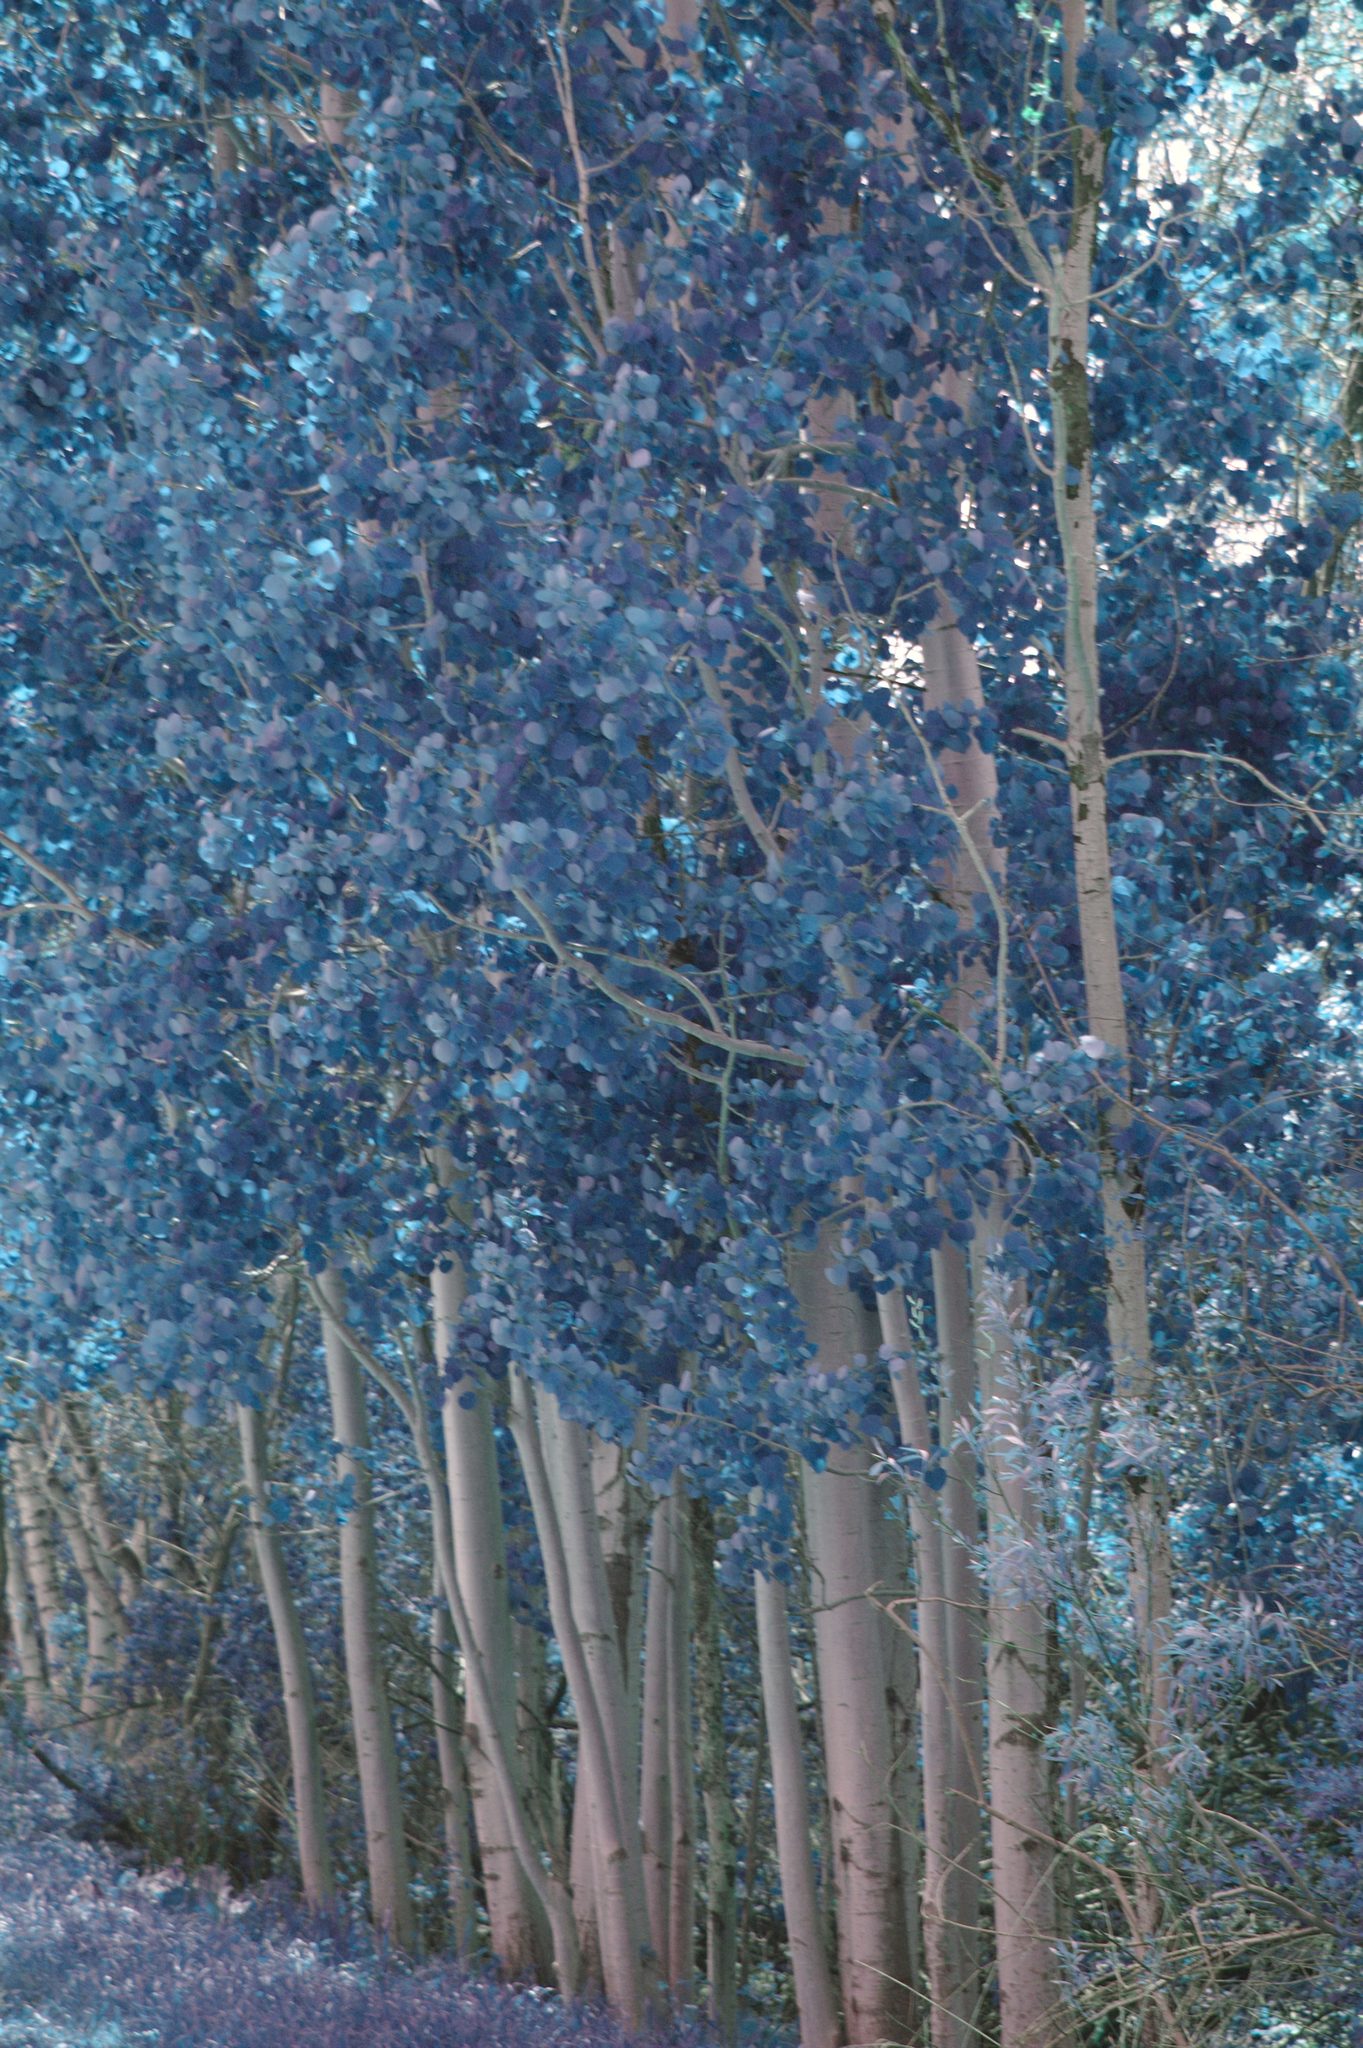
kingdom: Plantae
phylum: Tracheophyta
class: Magnoliopsida
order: Malpighiales
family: Salicaceae
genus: Populus
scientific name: Populus tremuloides
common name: Quaking aspen
